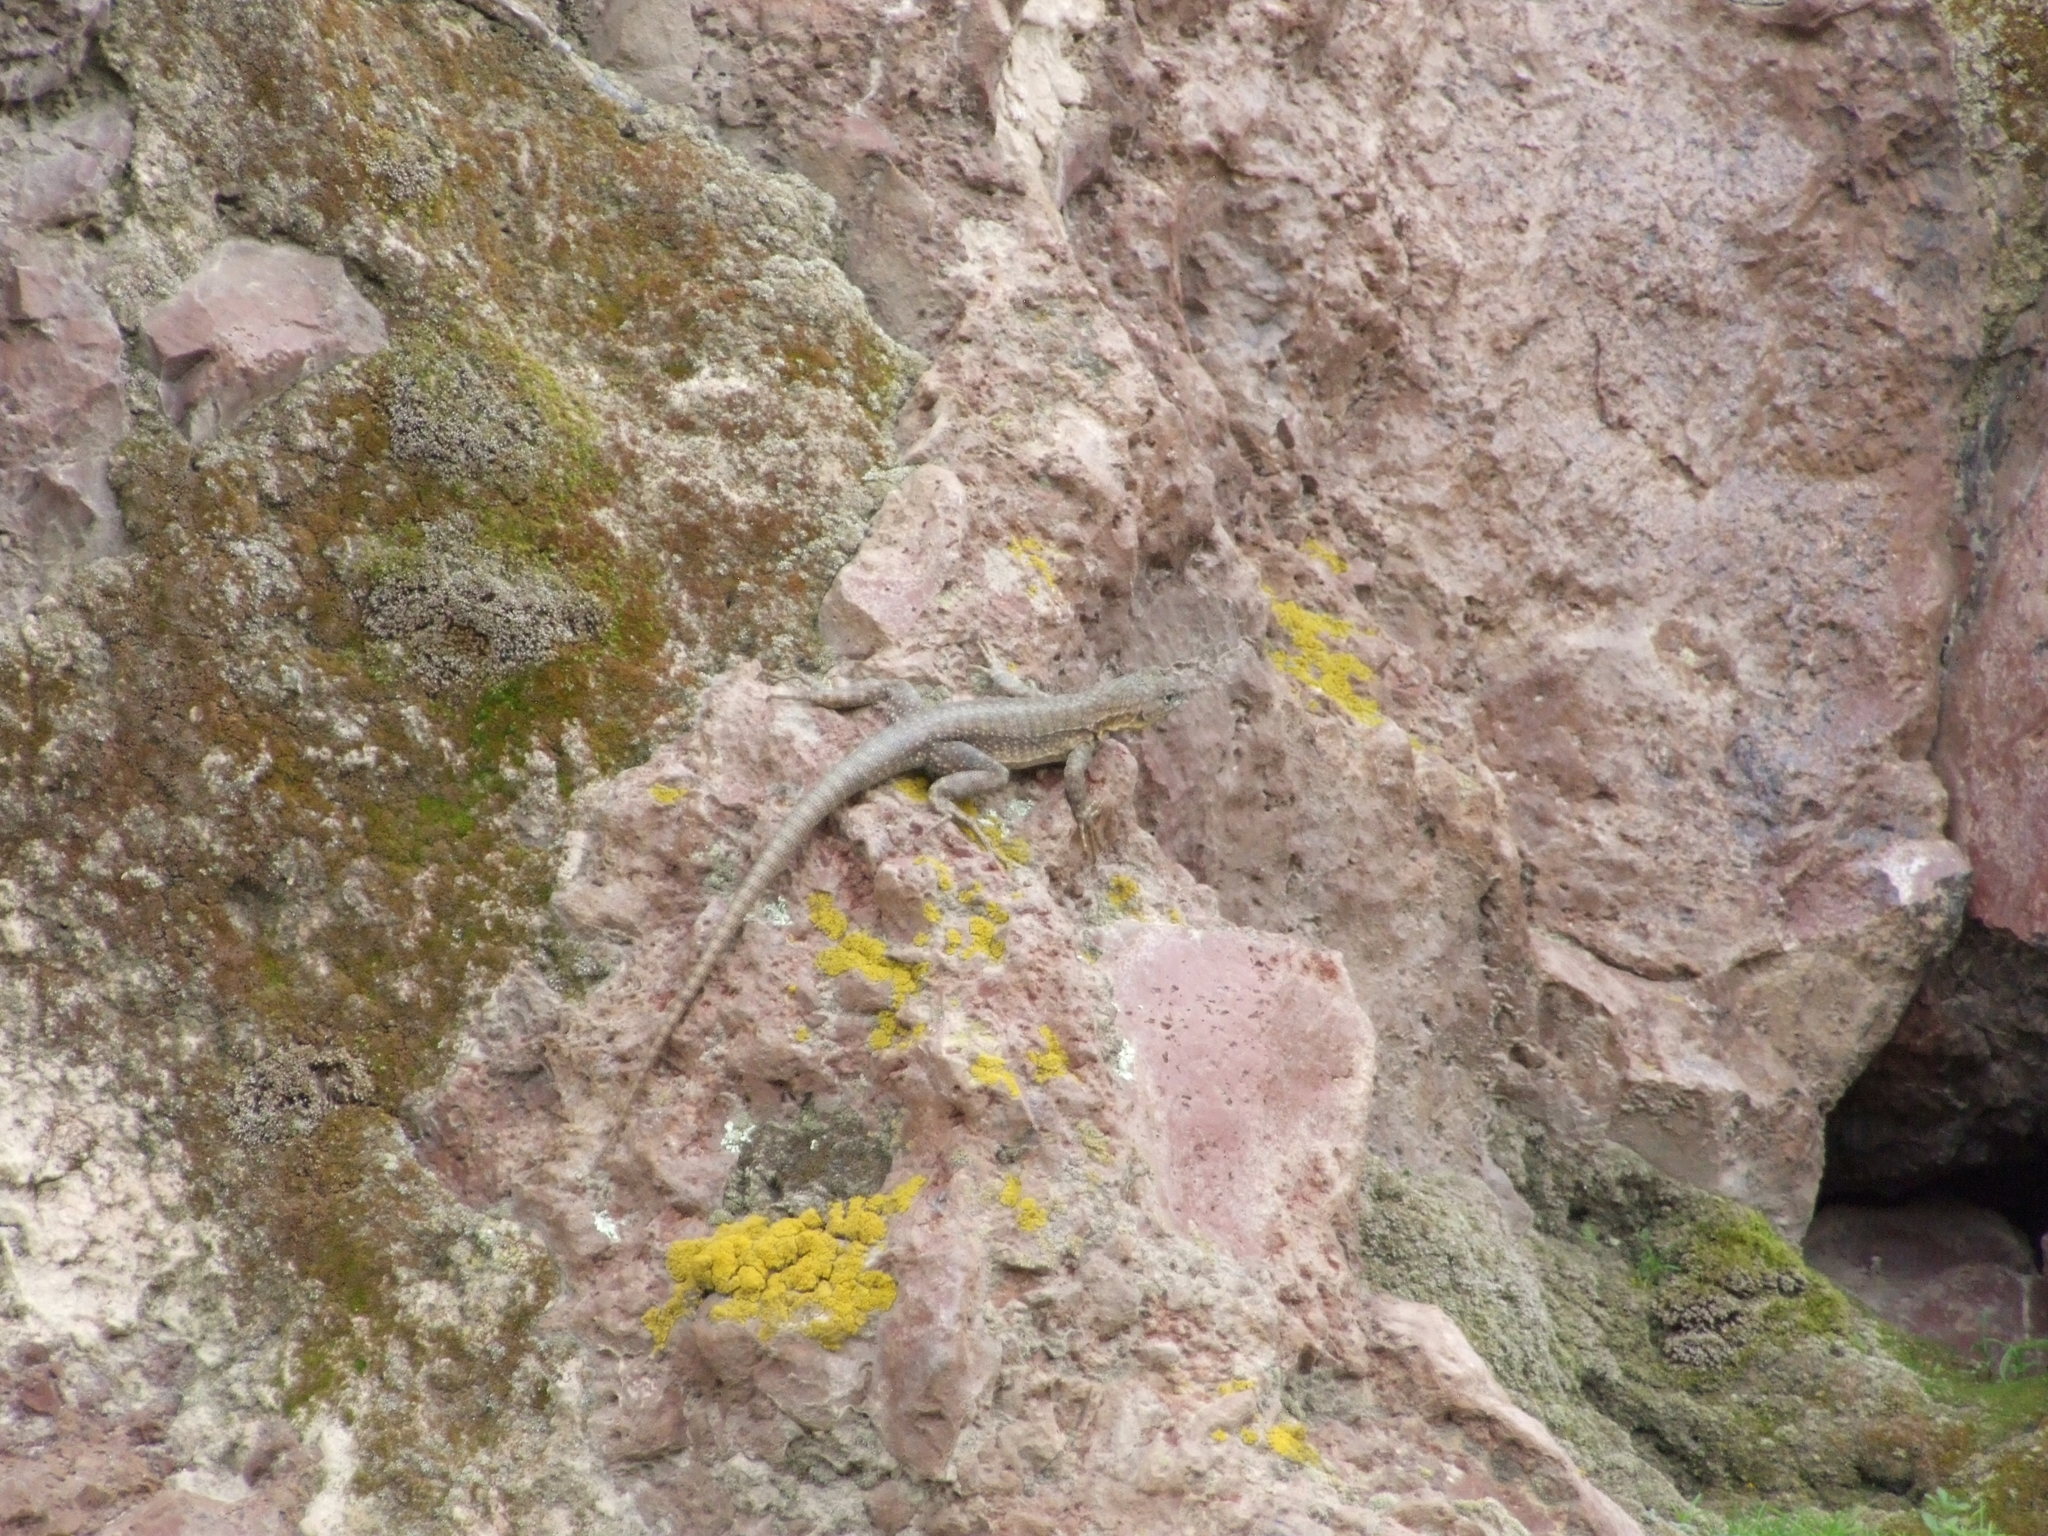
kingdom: Animalia
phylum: Chordata
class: Squamata
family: Tropiduridae
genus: Microlophus
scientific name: Microlophus peruvianus
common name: Peru pacific iguana
